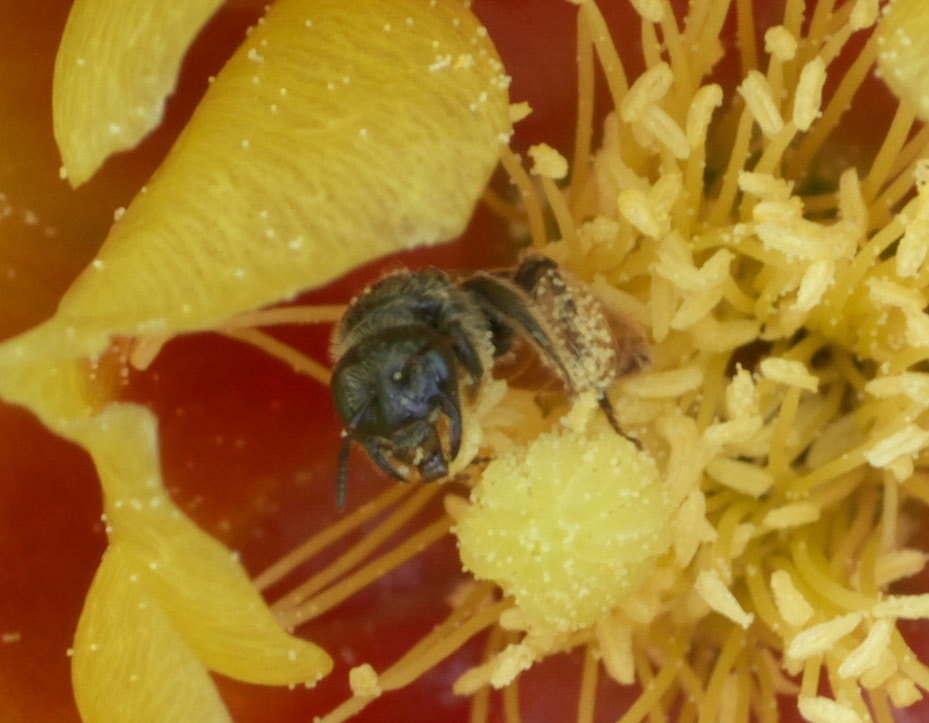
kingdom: Animalia
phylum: Arthropoda
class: Insecta
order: Hymenoptera
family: Andrenidae
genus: Macrotera
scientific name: Macrotera
